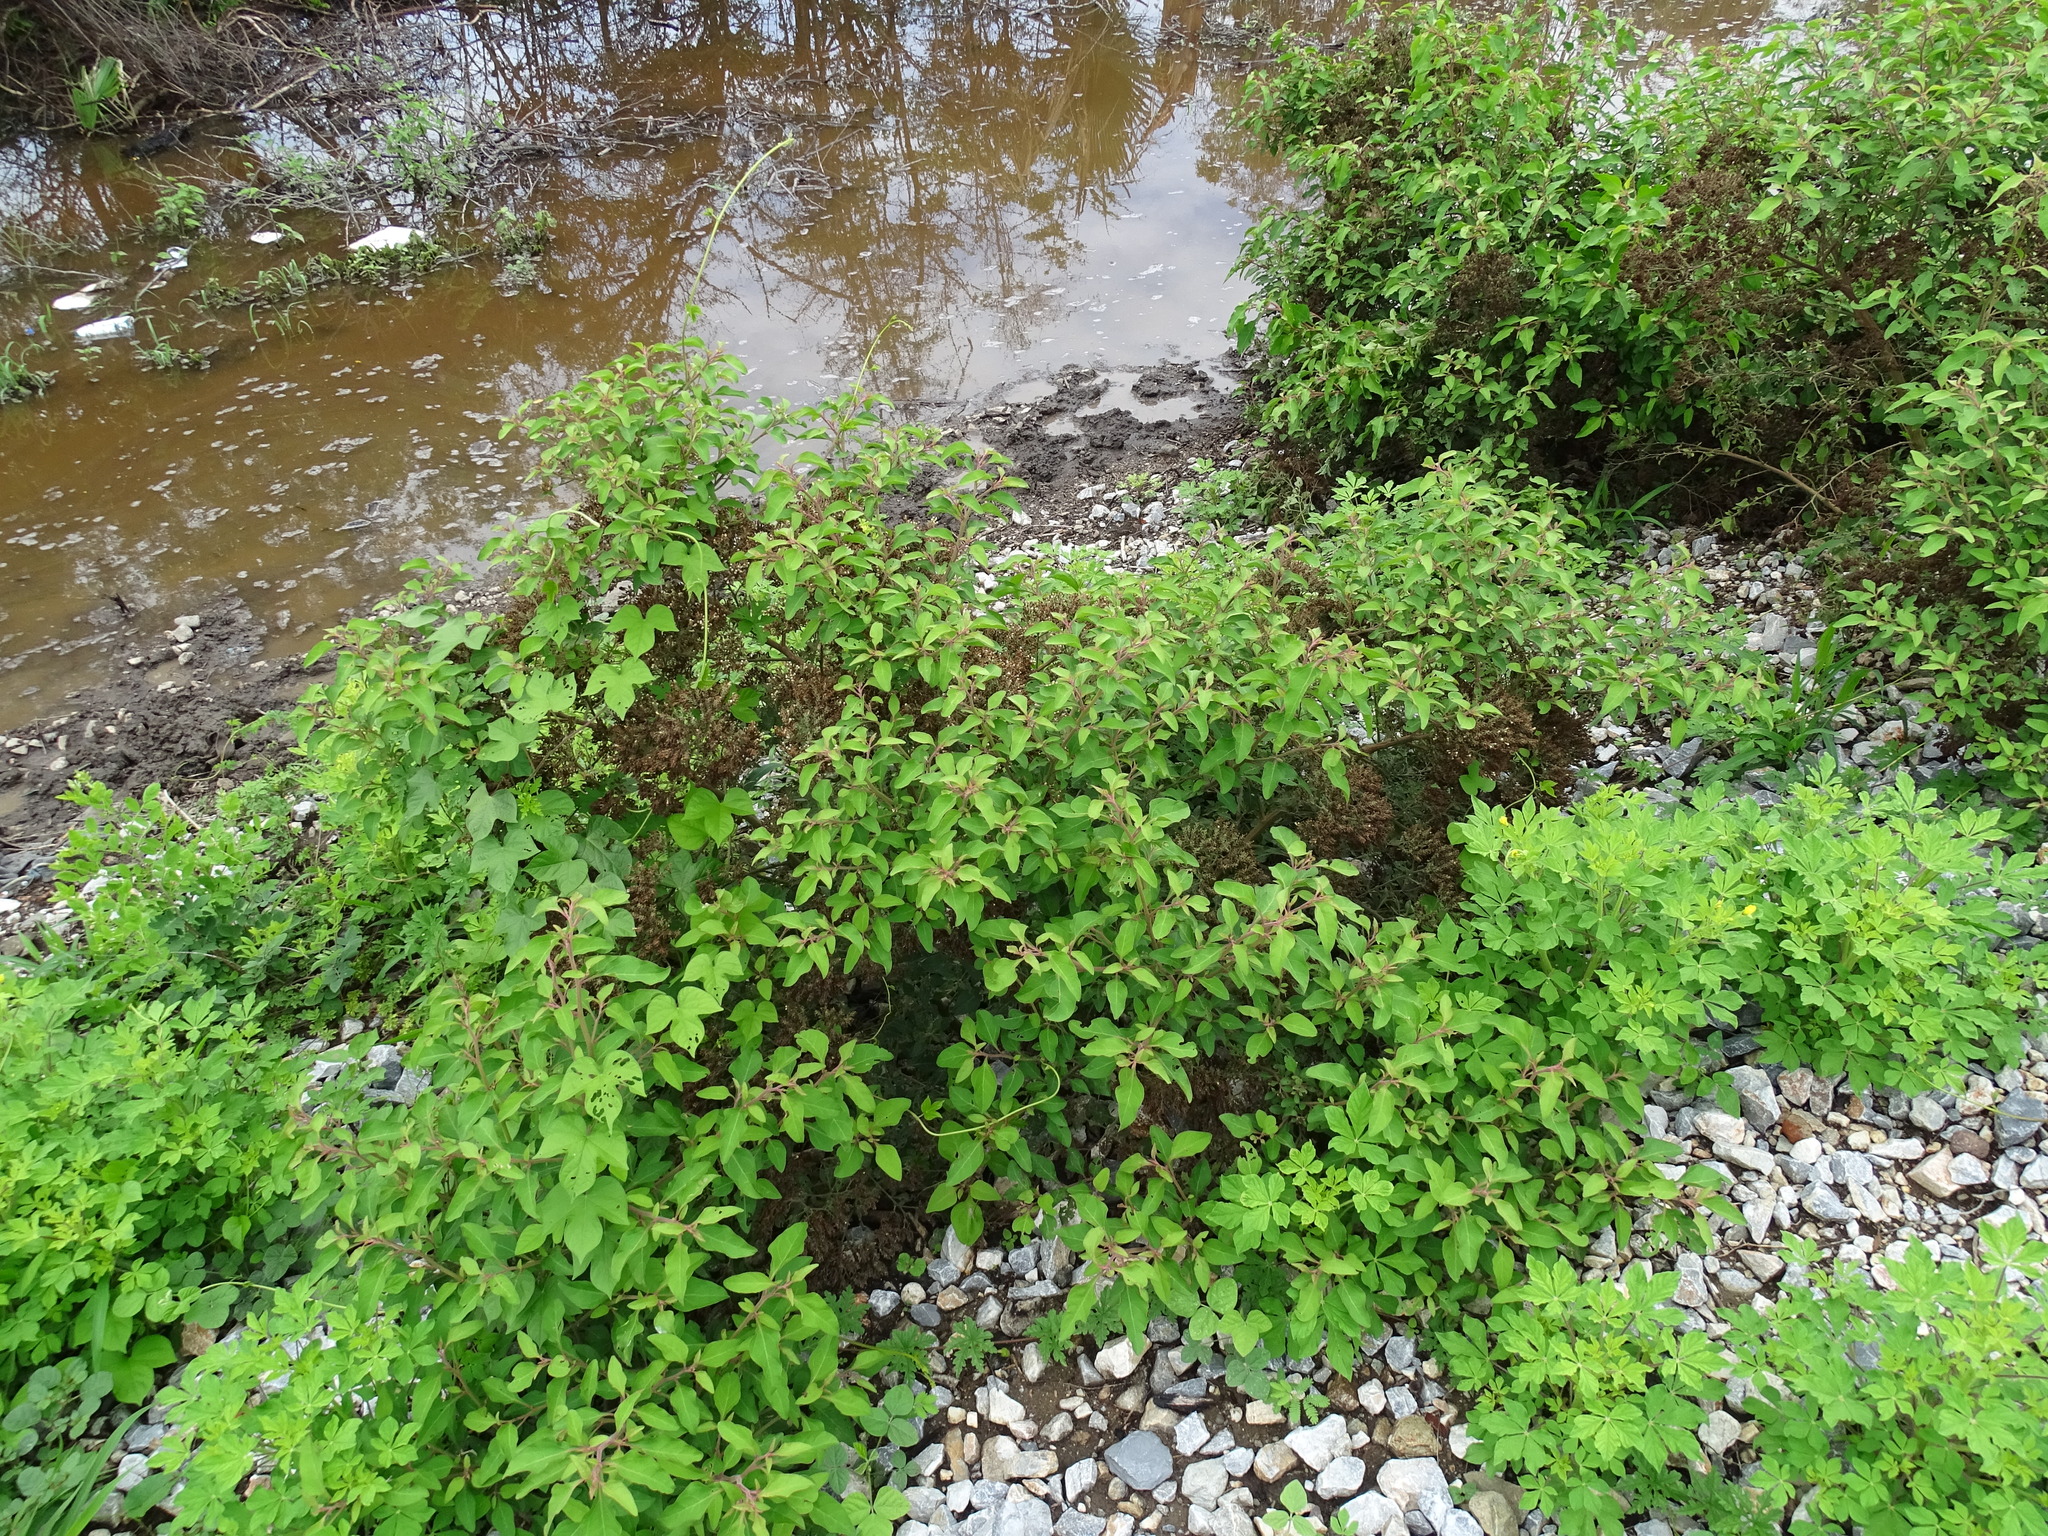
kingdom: Plantae
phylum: Tracheophyta
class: Magnoliopsida
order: Caryophyllales
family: Nyctaginaceae
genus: Salpianthus
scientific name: Salpianthus arenarius
